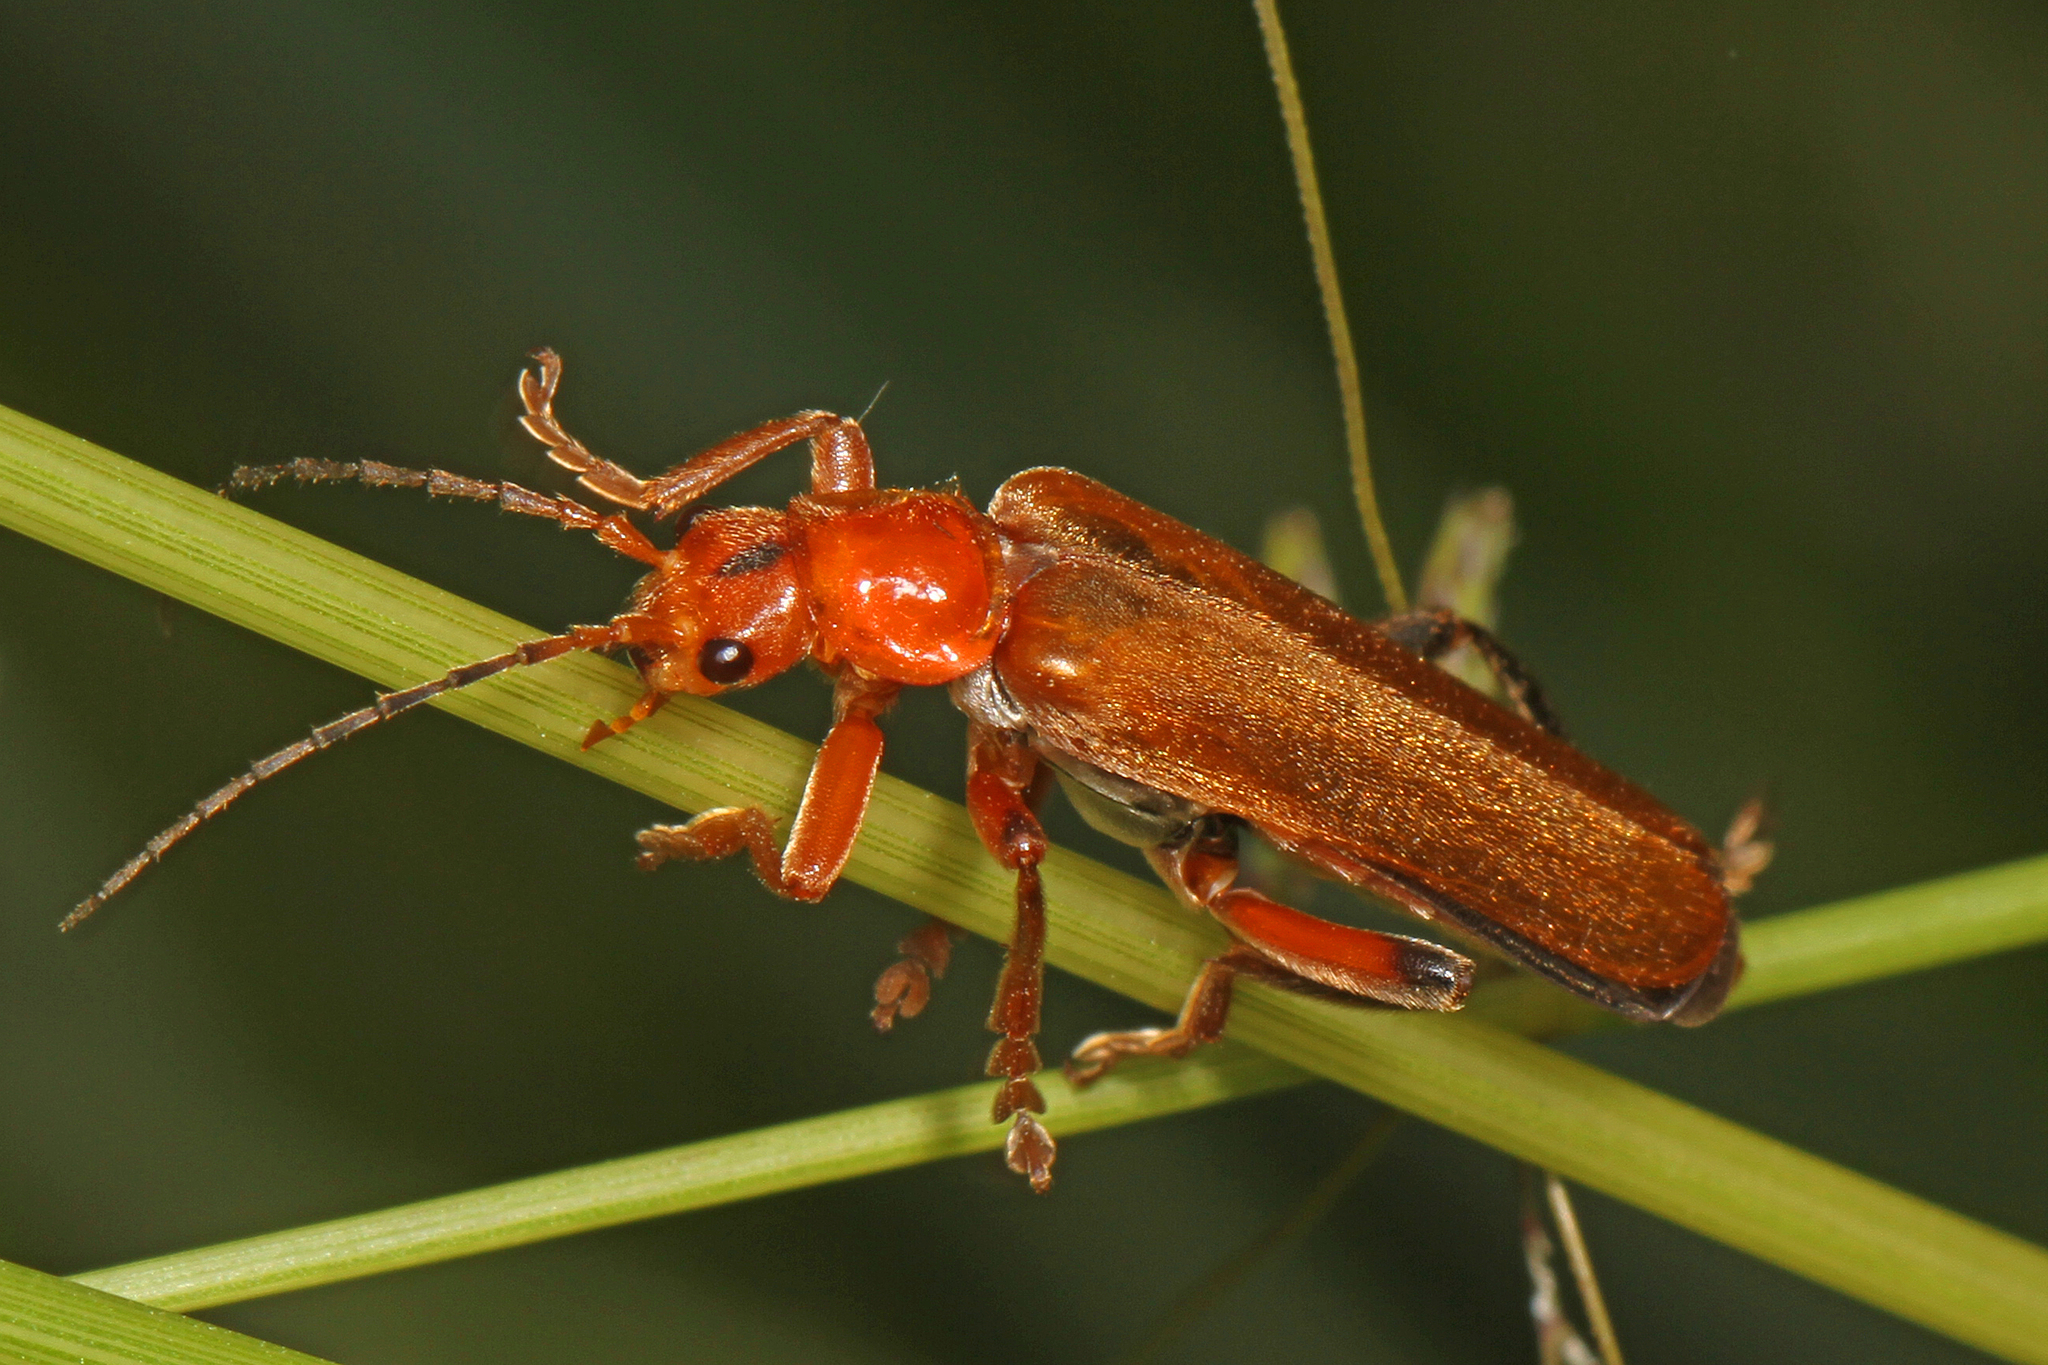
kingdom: Animalia
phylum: Arthropoda
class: Insecta
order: Coleoptera
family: Cantharidae
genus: Cantharis
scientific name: Cantharis livida
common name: Livid soldier beetle
